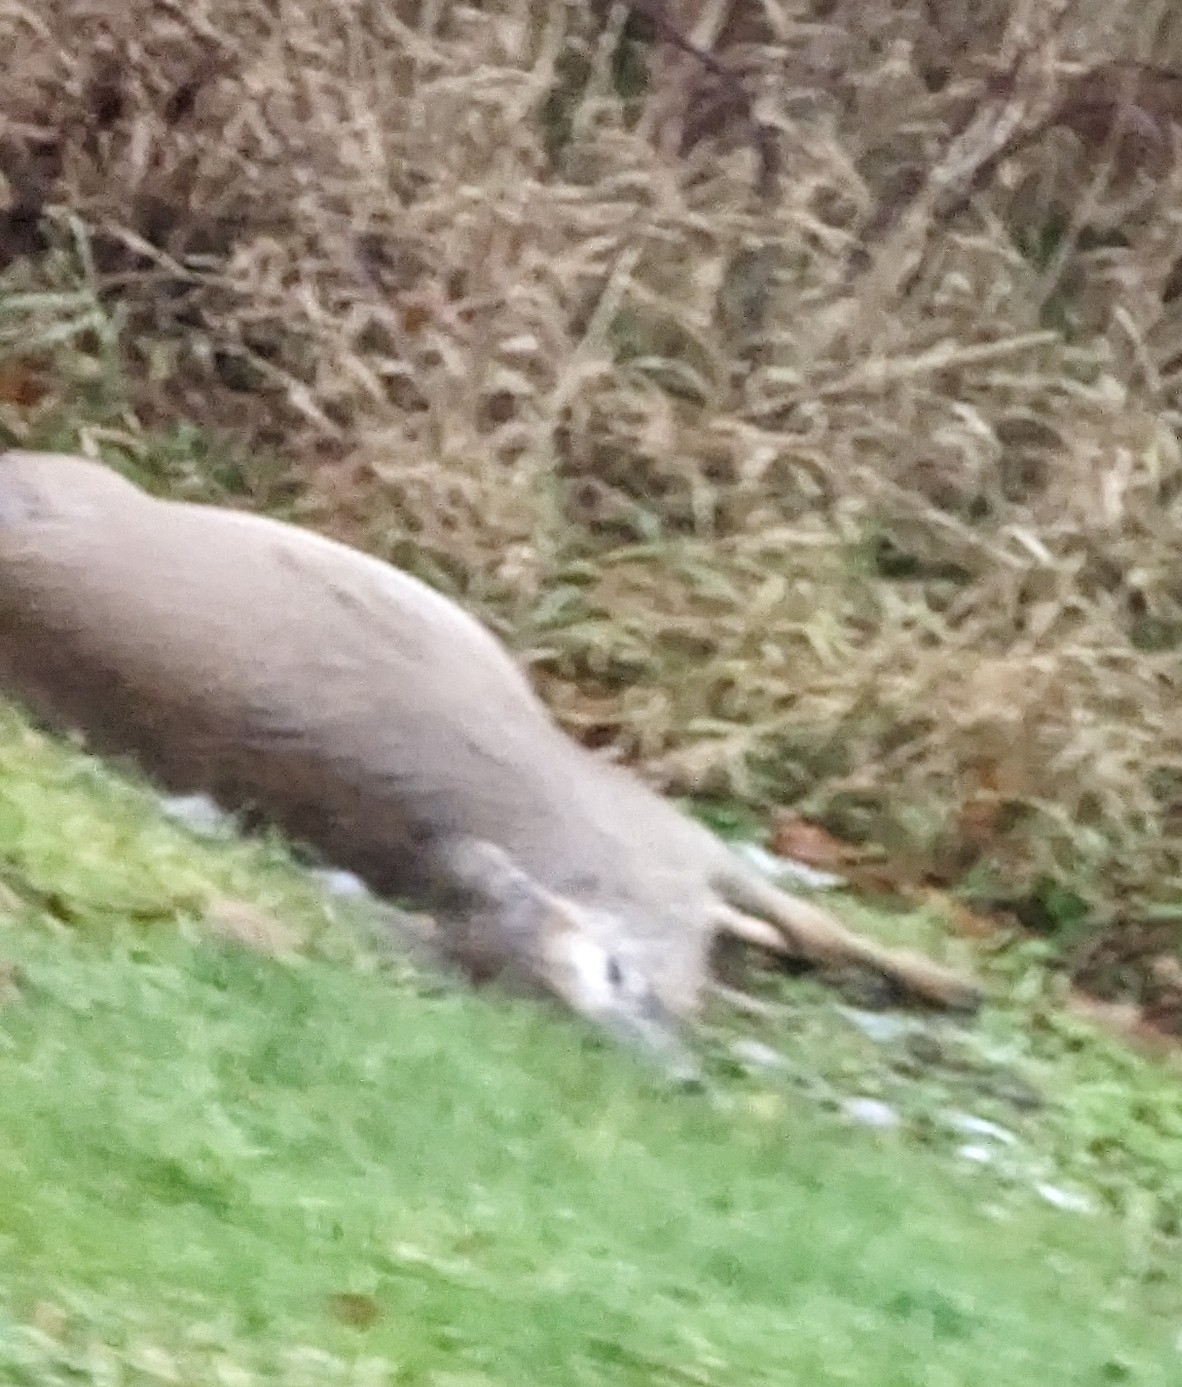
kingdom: Animalia
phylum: Chordata
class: Mammalia
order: Artiodactyla
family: Cervidae
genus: Odocoileus
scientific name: Odocoileus virginianus
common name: White-tailed deer
